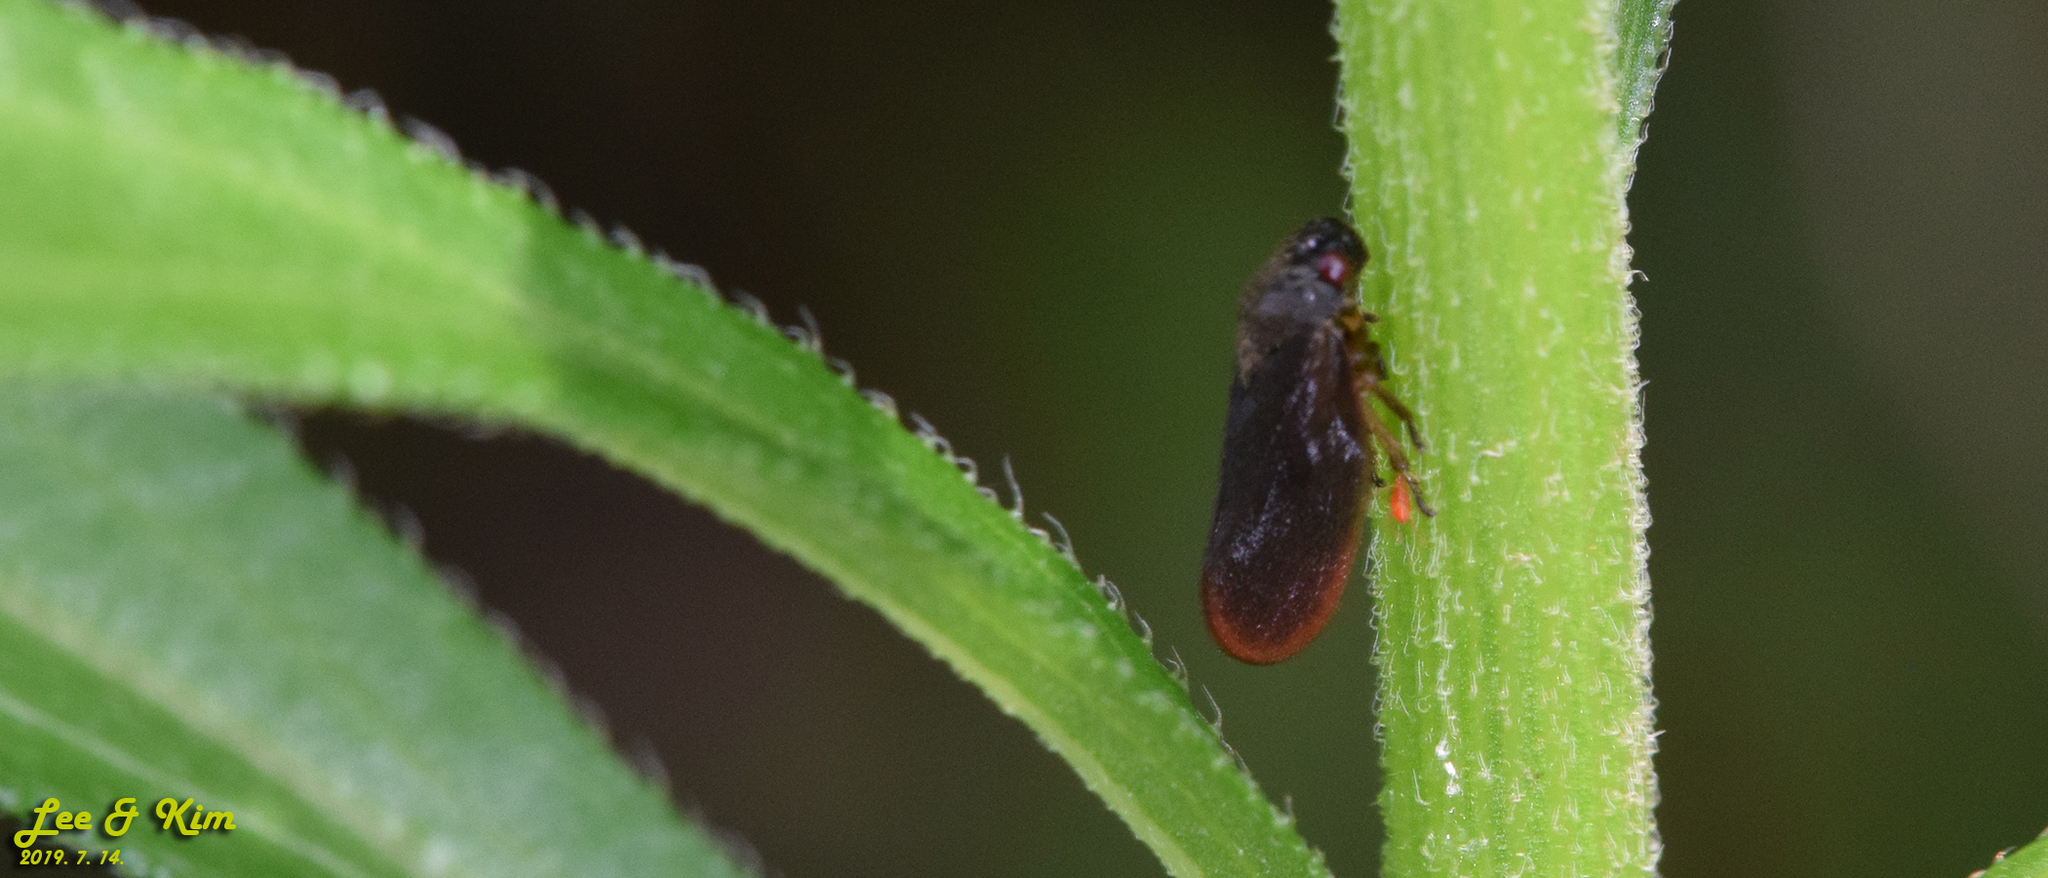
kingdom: Animalia
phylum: Arthropoda
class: Insecta
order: Hemiptera
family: Cercopidae
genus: Eoscarta
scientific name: Eoscarta assimilis
